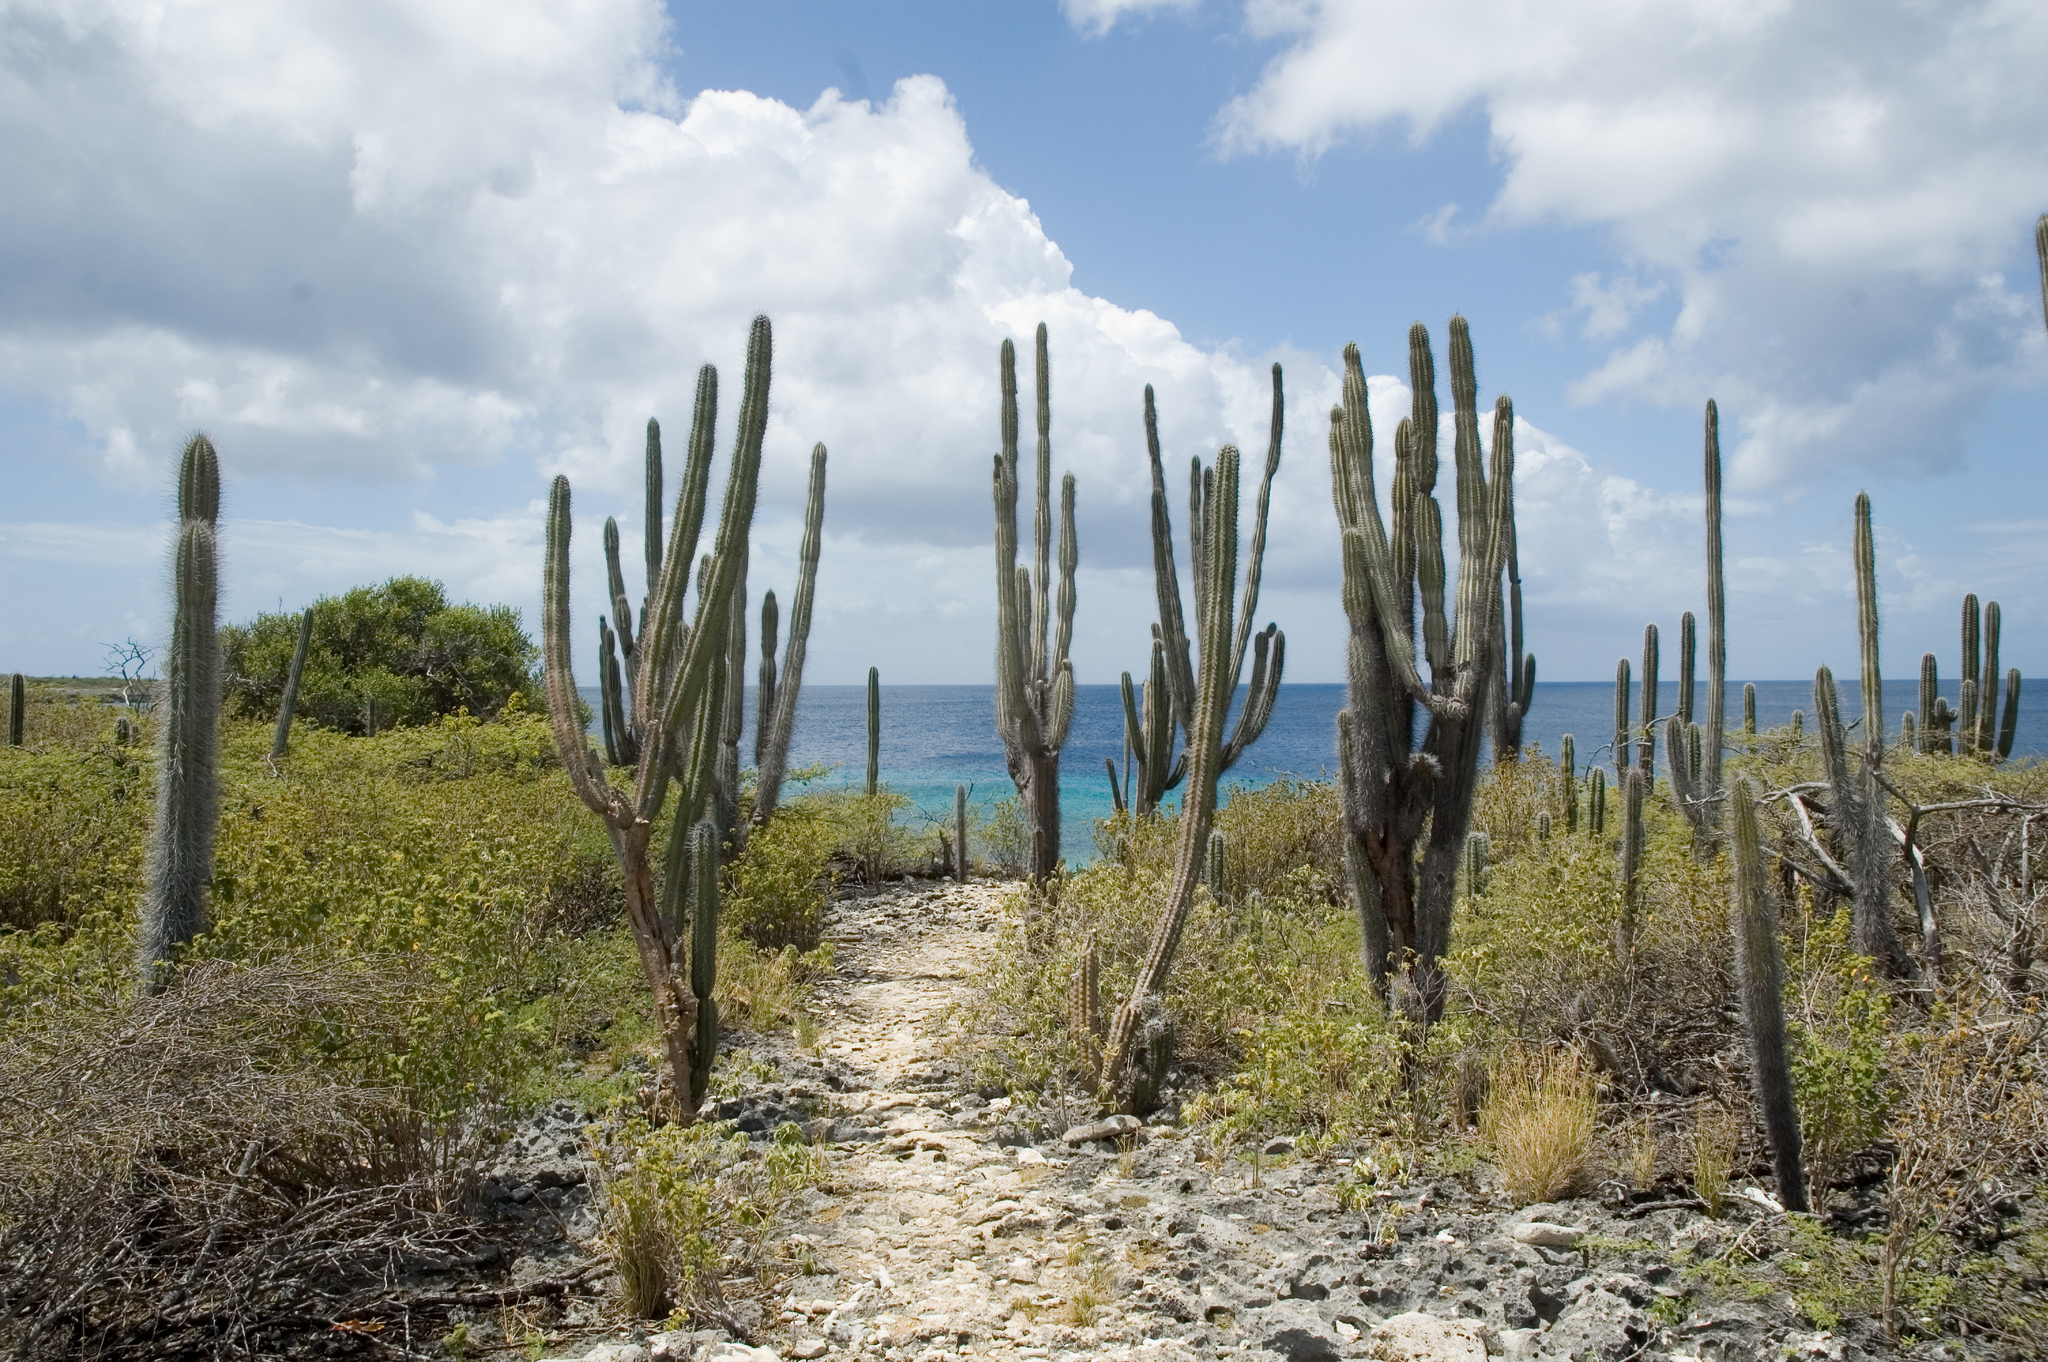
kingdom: Plantae
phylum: Tracheophyta
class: Magnoliopsida
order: Caryophyllales
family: Cactaceae
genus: Cereus
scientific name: Cereus repandus
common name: Sweetpotato cactus
